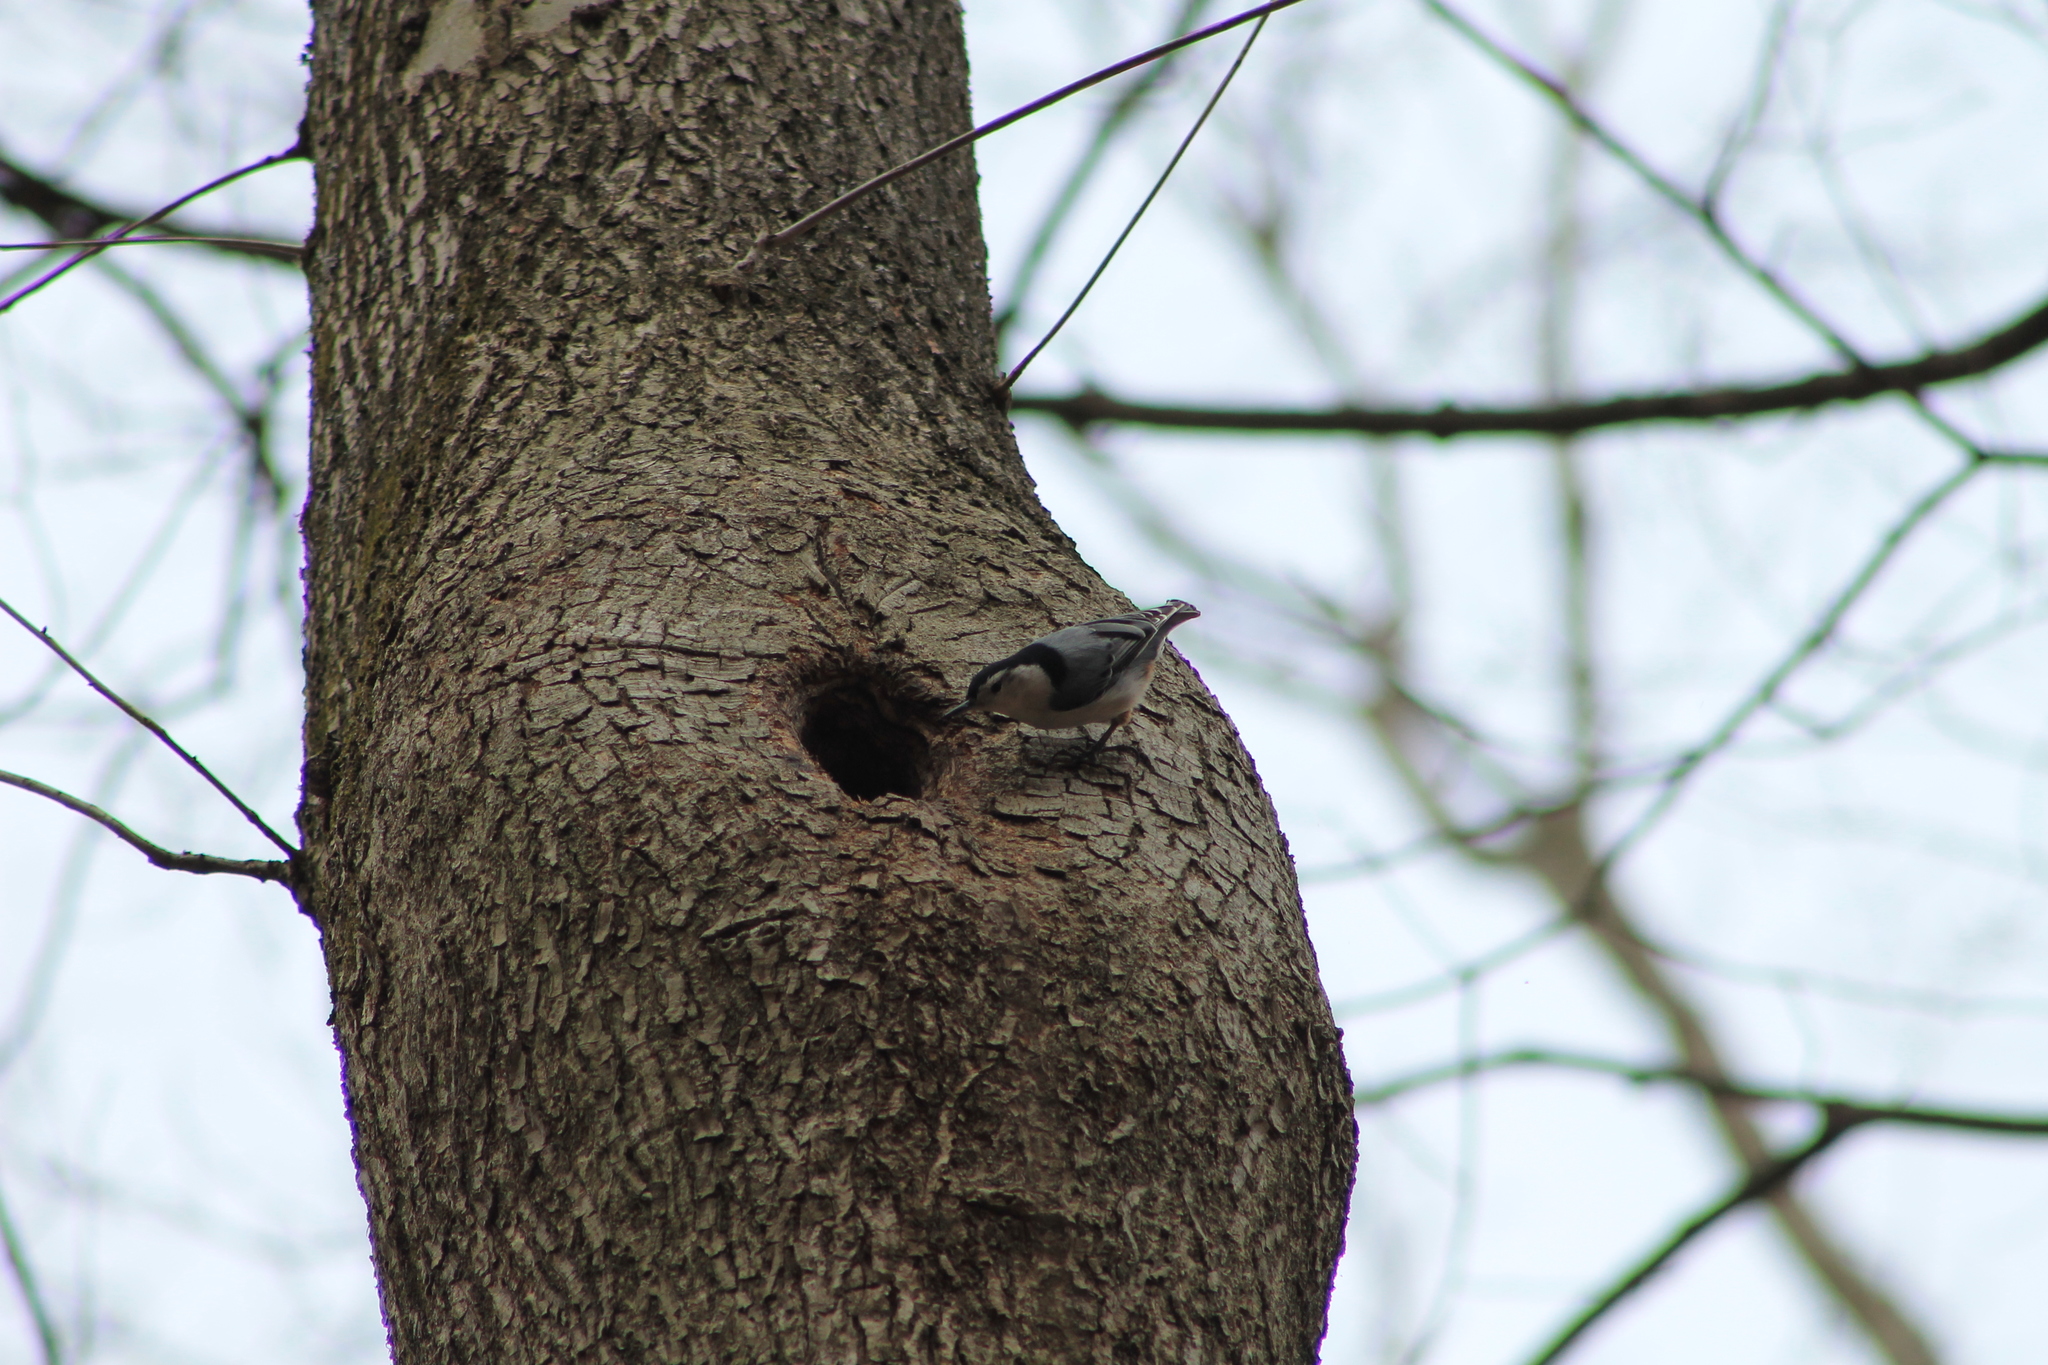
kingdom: Animalia
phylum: Chordata
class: Aves
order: Passeriformes
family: Sittidae
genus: Sitta
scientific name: Sitta carolinensis
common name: White-breasted nuthatch
